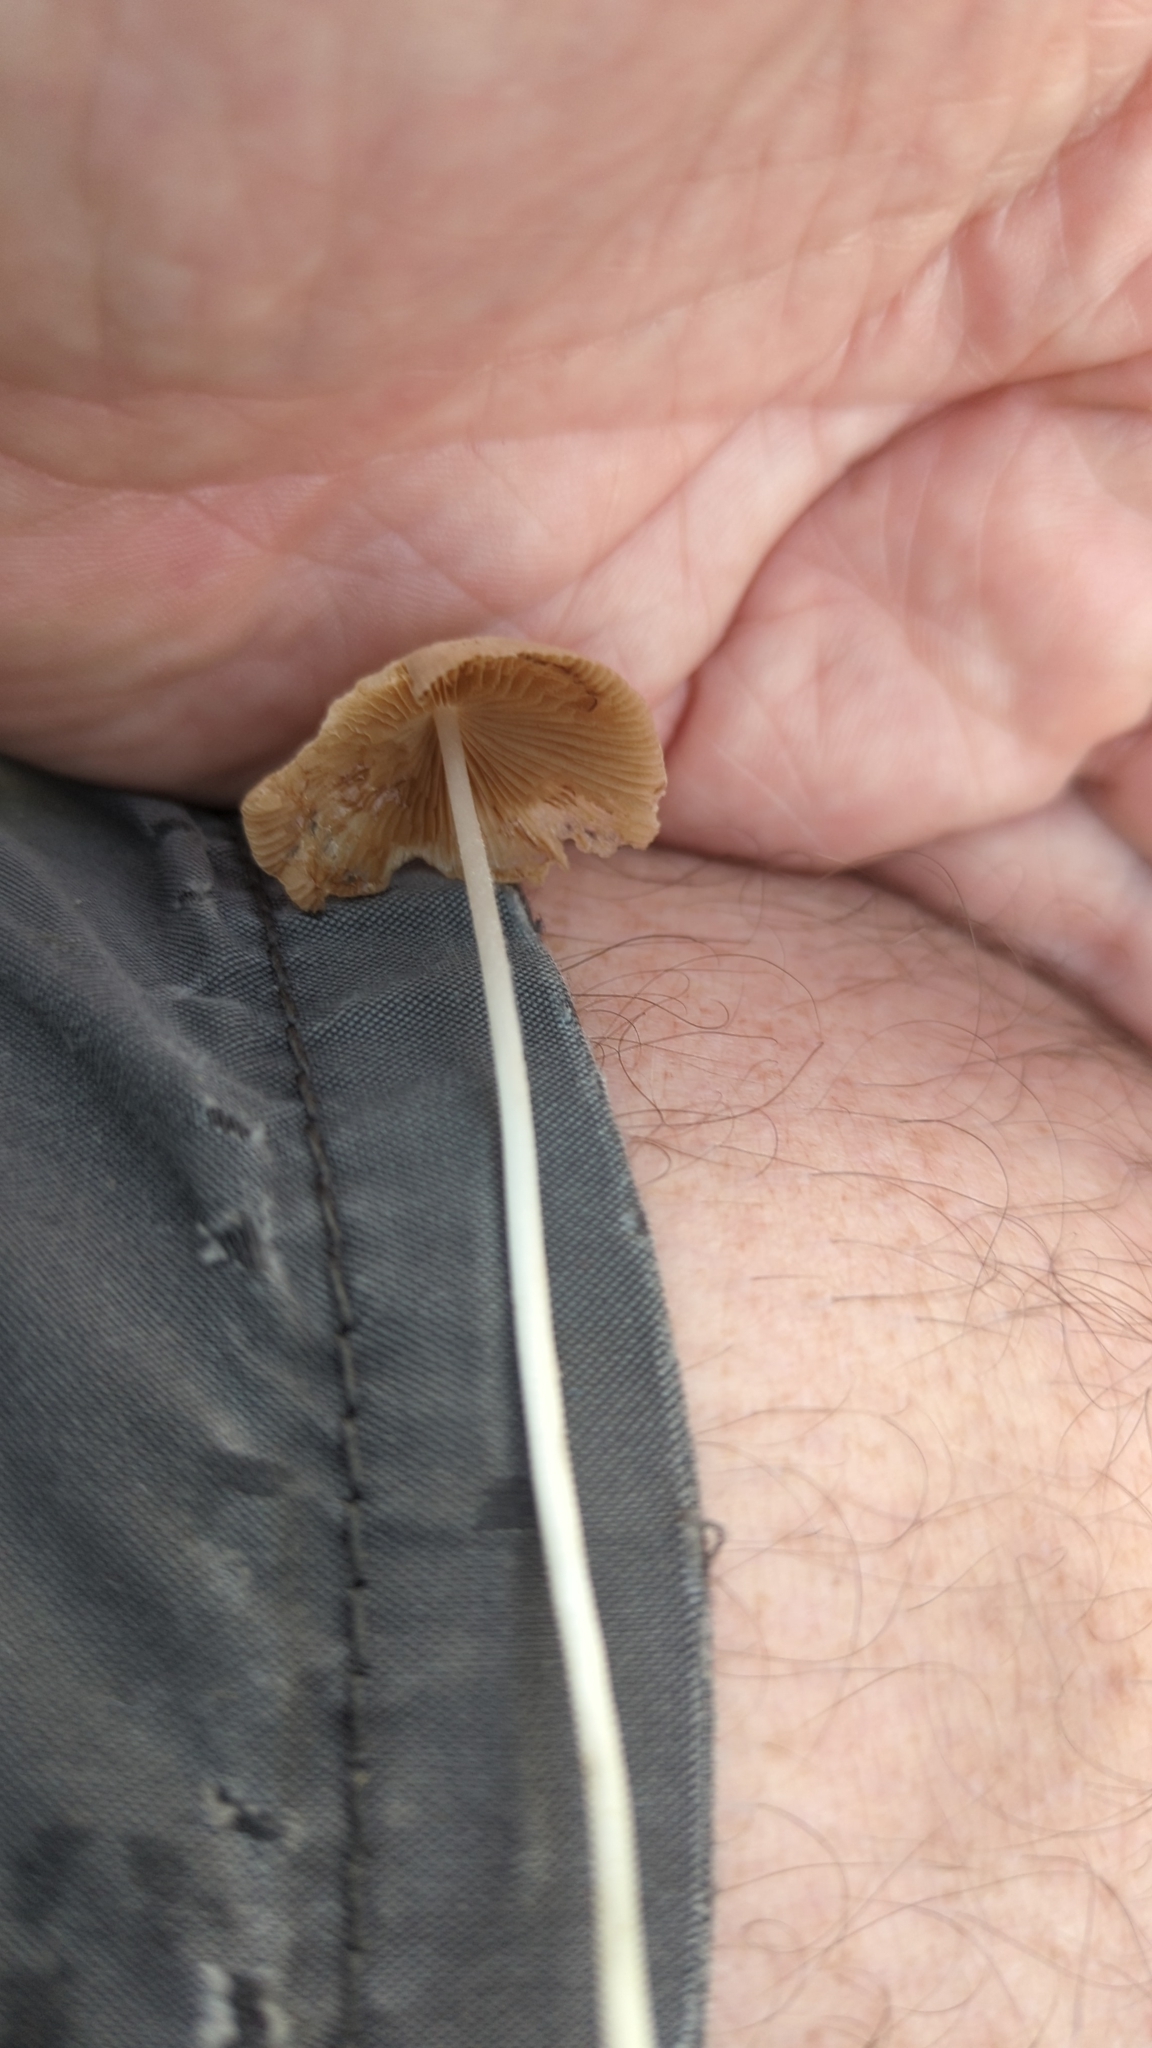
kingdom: Fungi
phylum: Basidiomycota
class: Agaricomycetes
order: Agaricales
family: Bolbitiaceae
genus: Conocybe
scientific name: Conocybe apala
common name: Milky conecap
